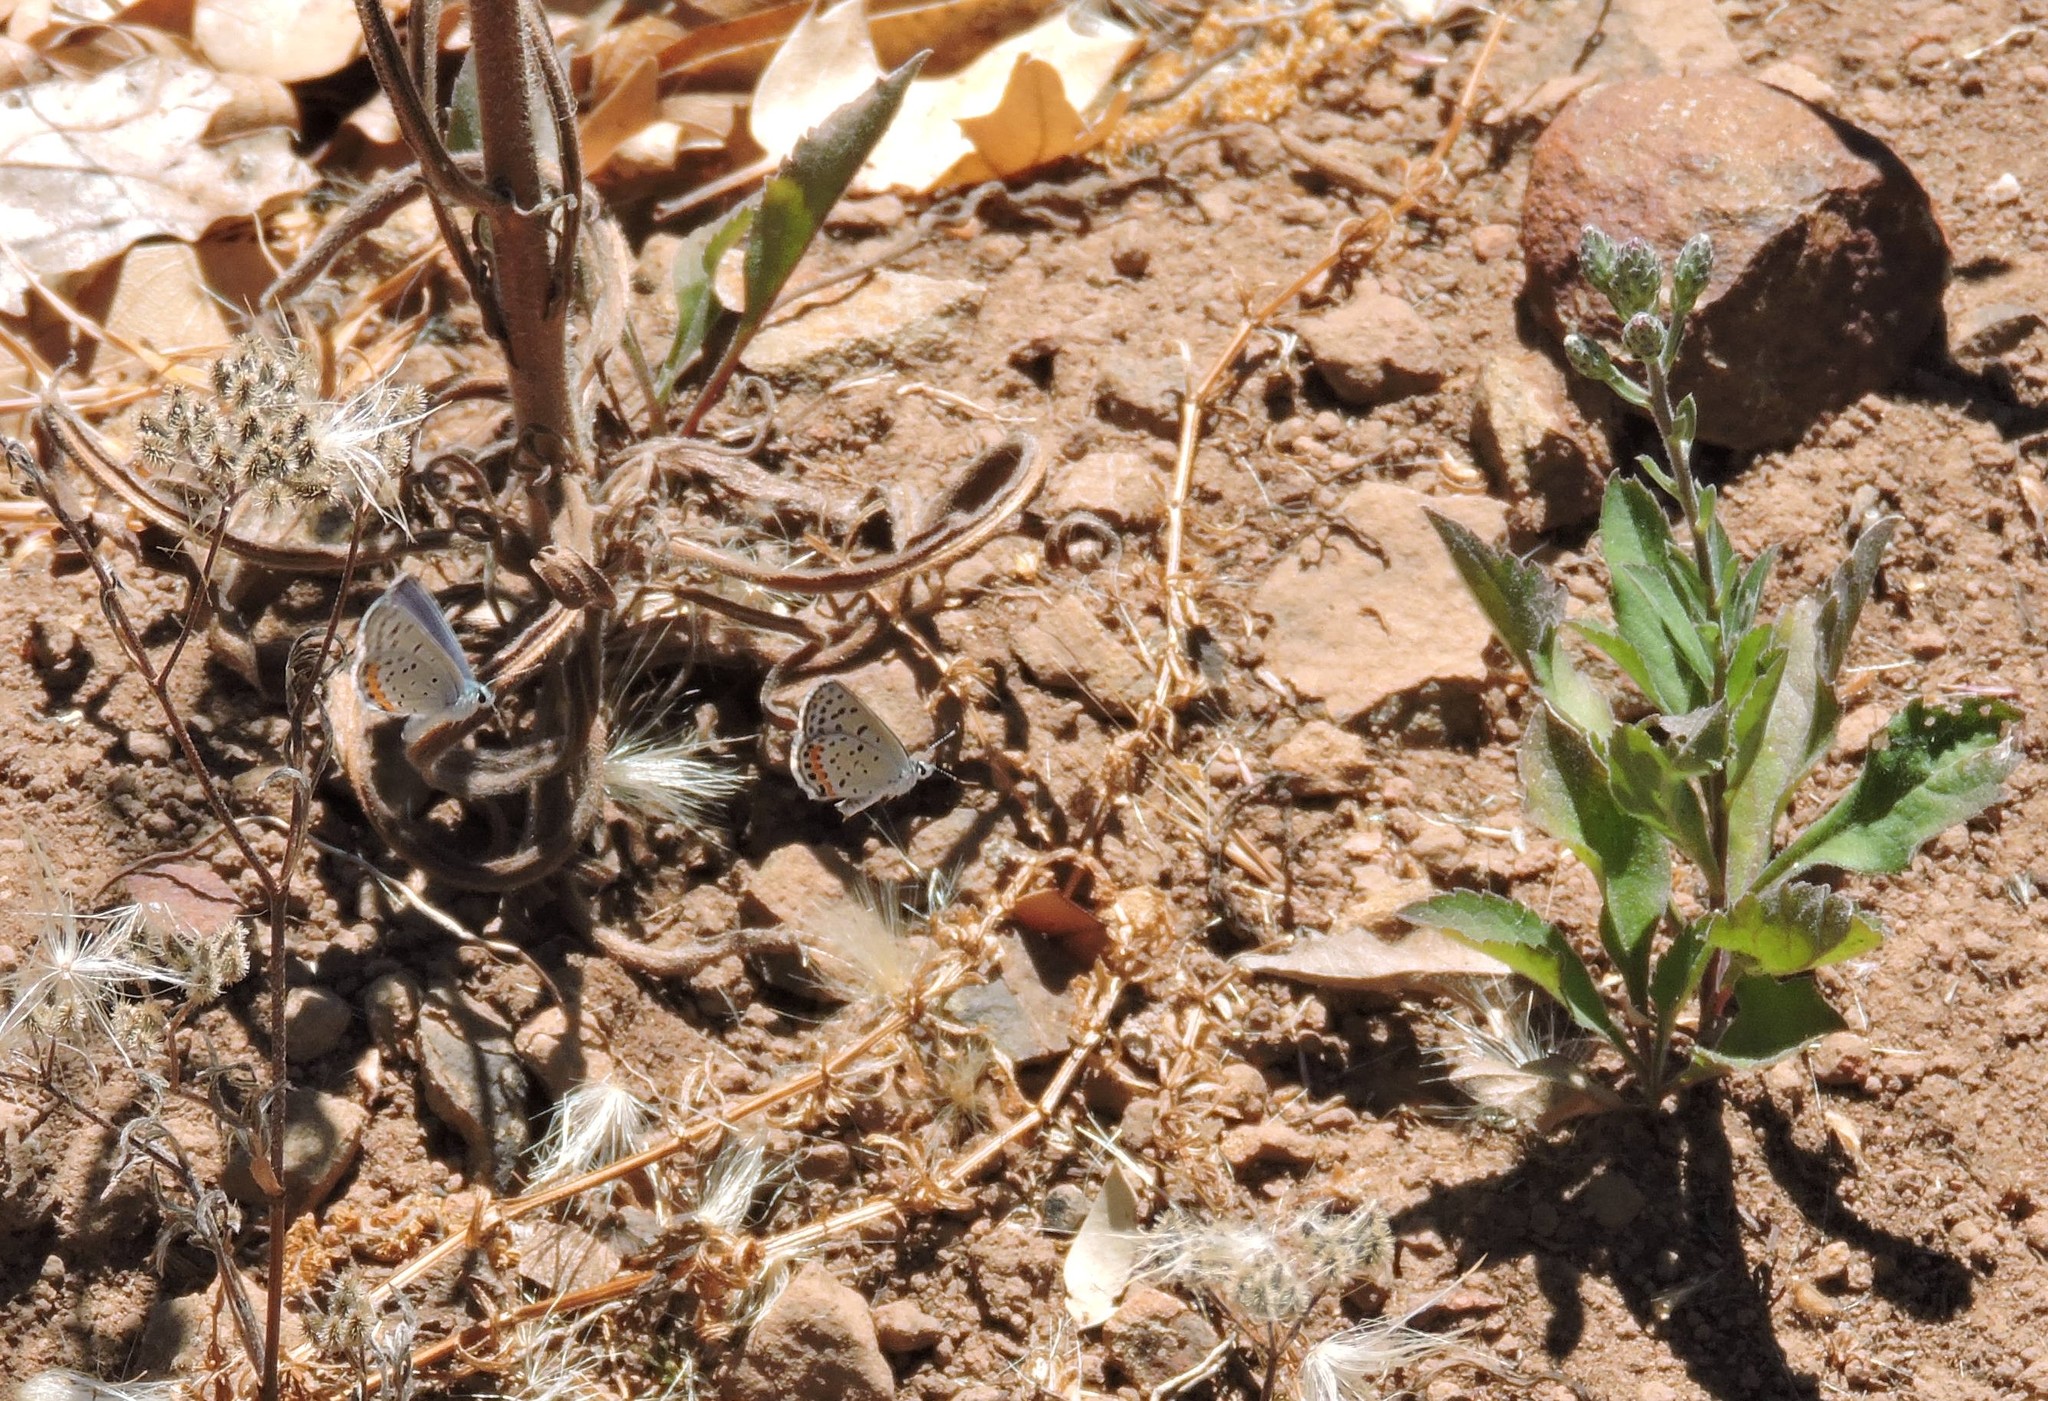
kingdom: Animalia
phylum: Arthropoda
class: Insecta
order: Lepidoptera
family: Lycaenidae
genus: Icaricia
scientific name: Icaricia acmon
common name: Acmon blue
